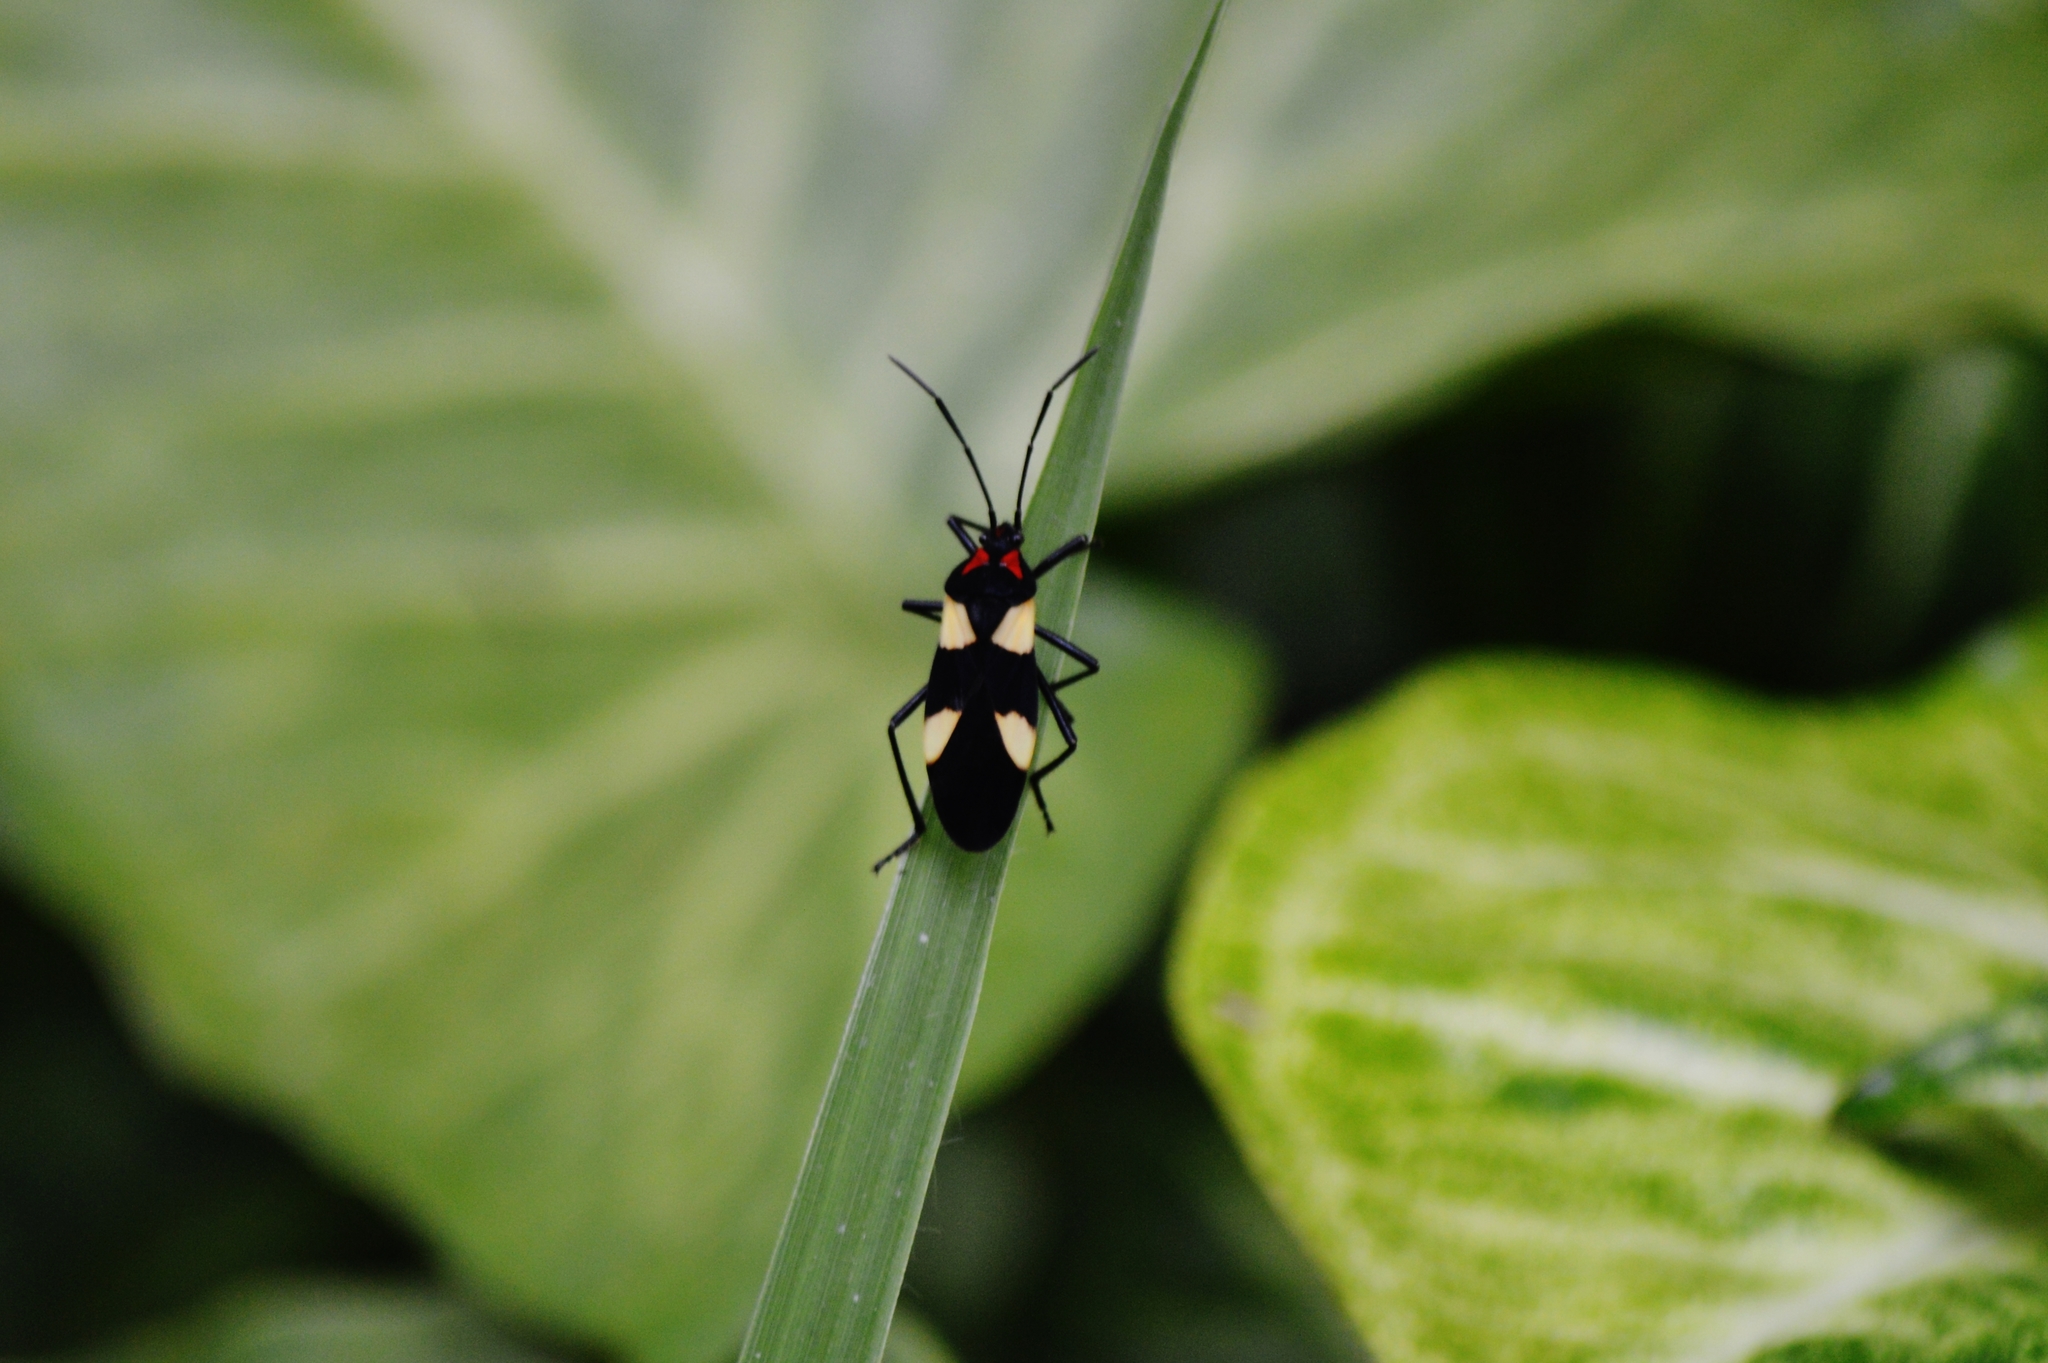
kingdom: Animalia
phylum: Arthropoda
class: Insecta
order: Hemiptera
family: Lygaeidae
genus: Oncopeltus
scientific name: Oncopeltus orourkeae
